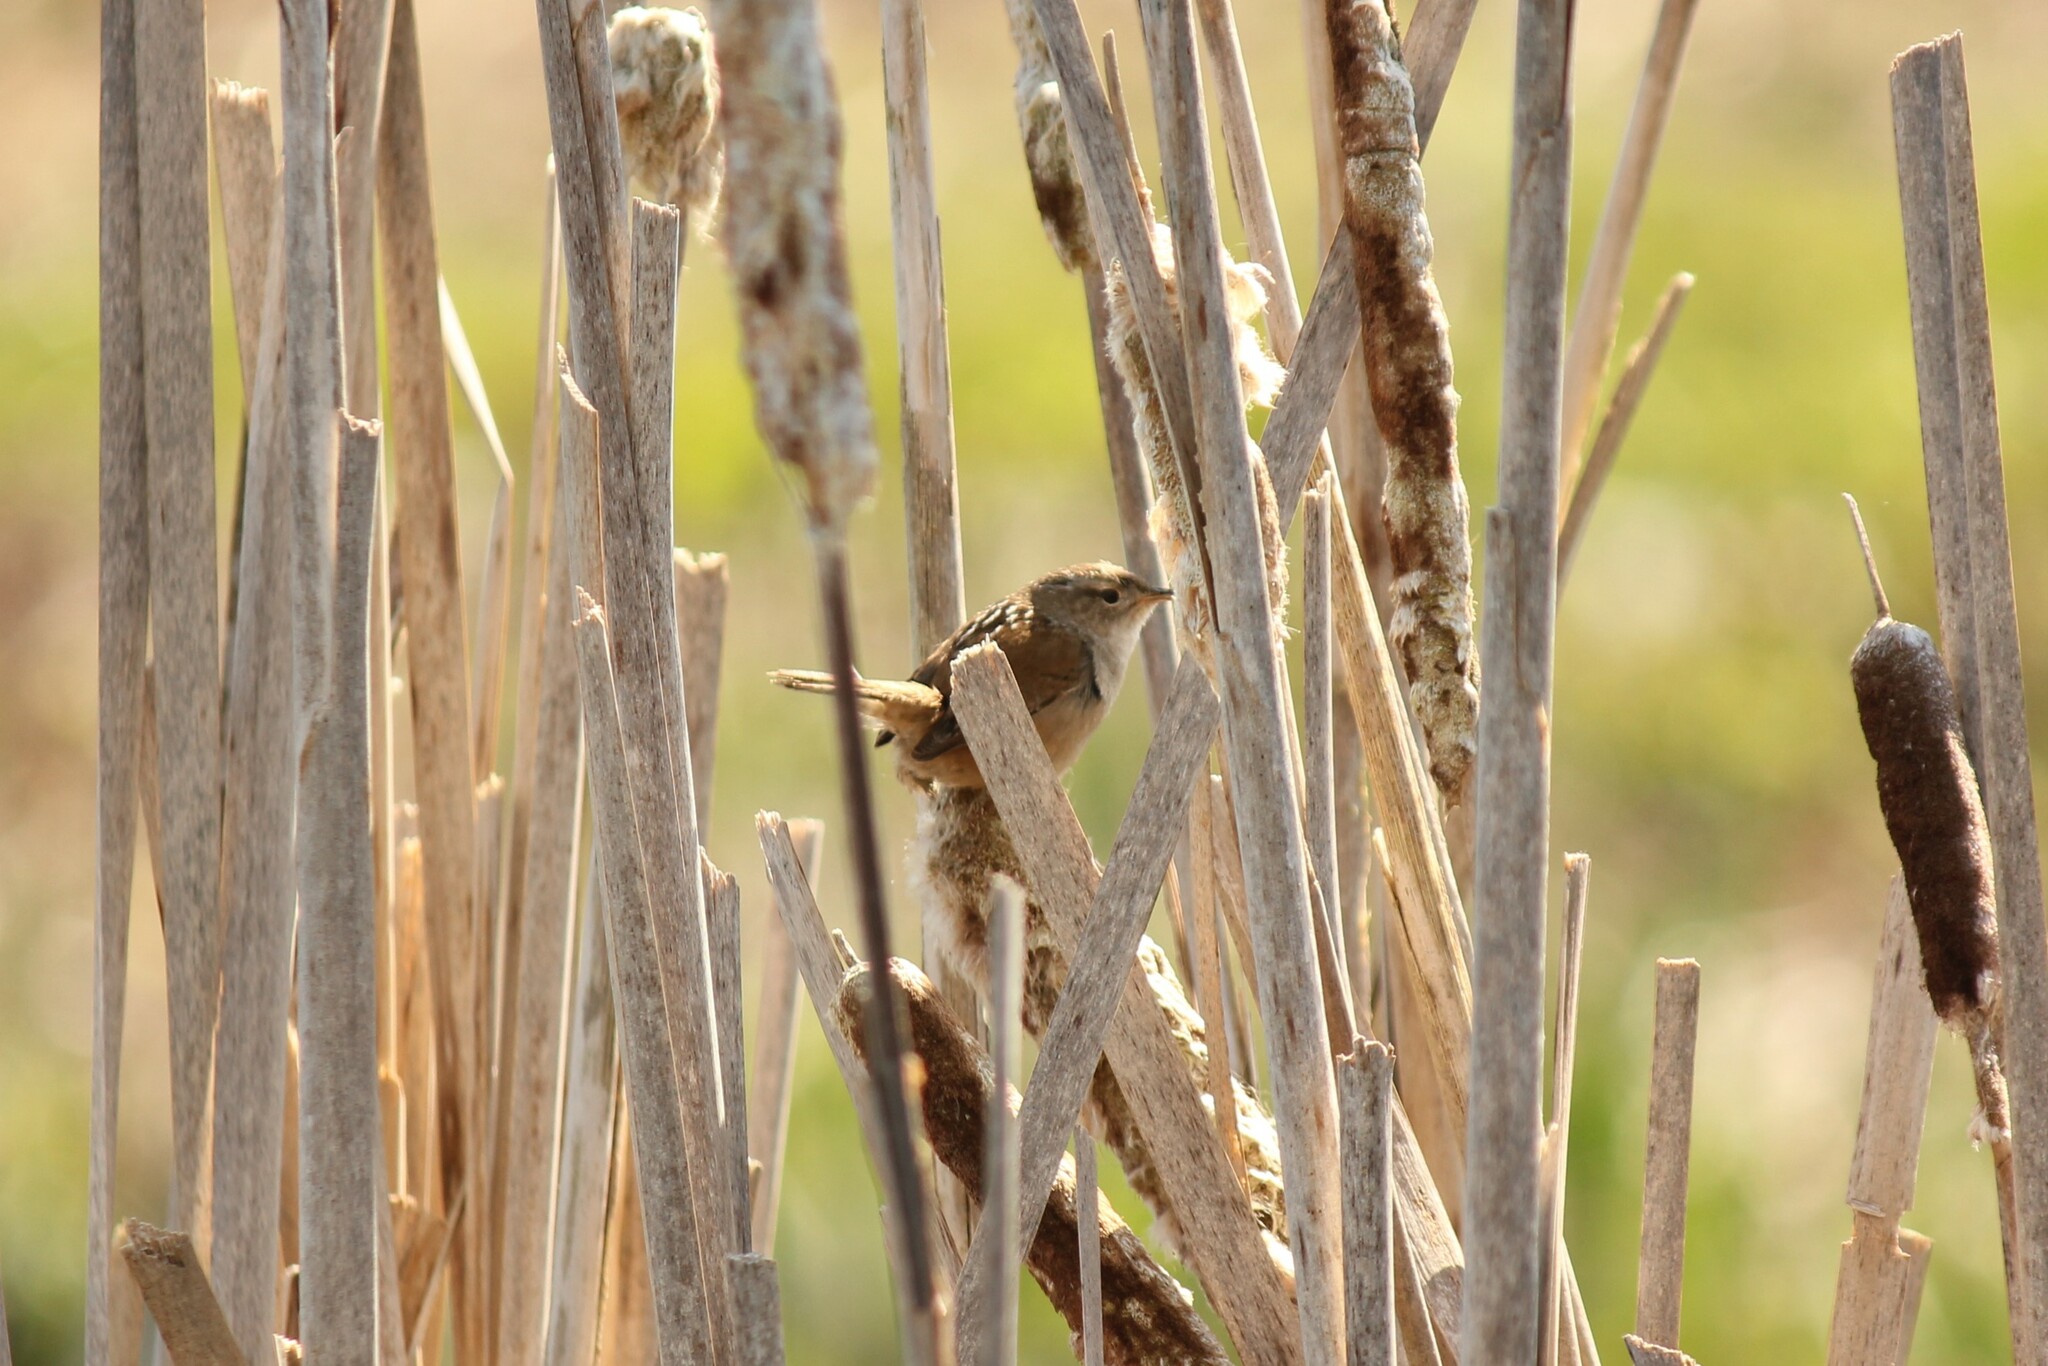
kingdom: Animalia
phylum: Chordata
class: Aves
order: Passeriformes
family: Troglodytidae
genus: Cistothorus
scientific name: Cistothorus palustris
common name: Marsh wren
